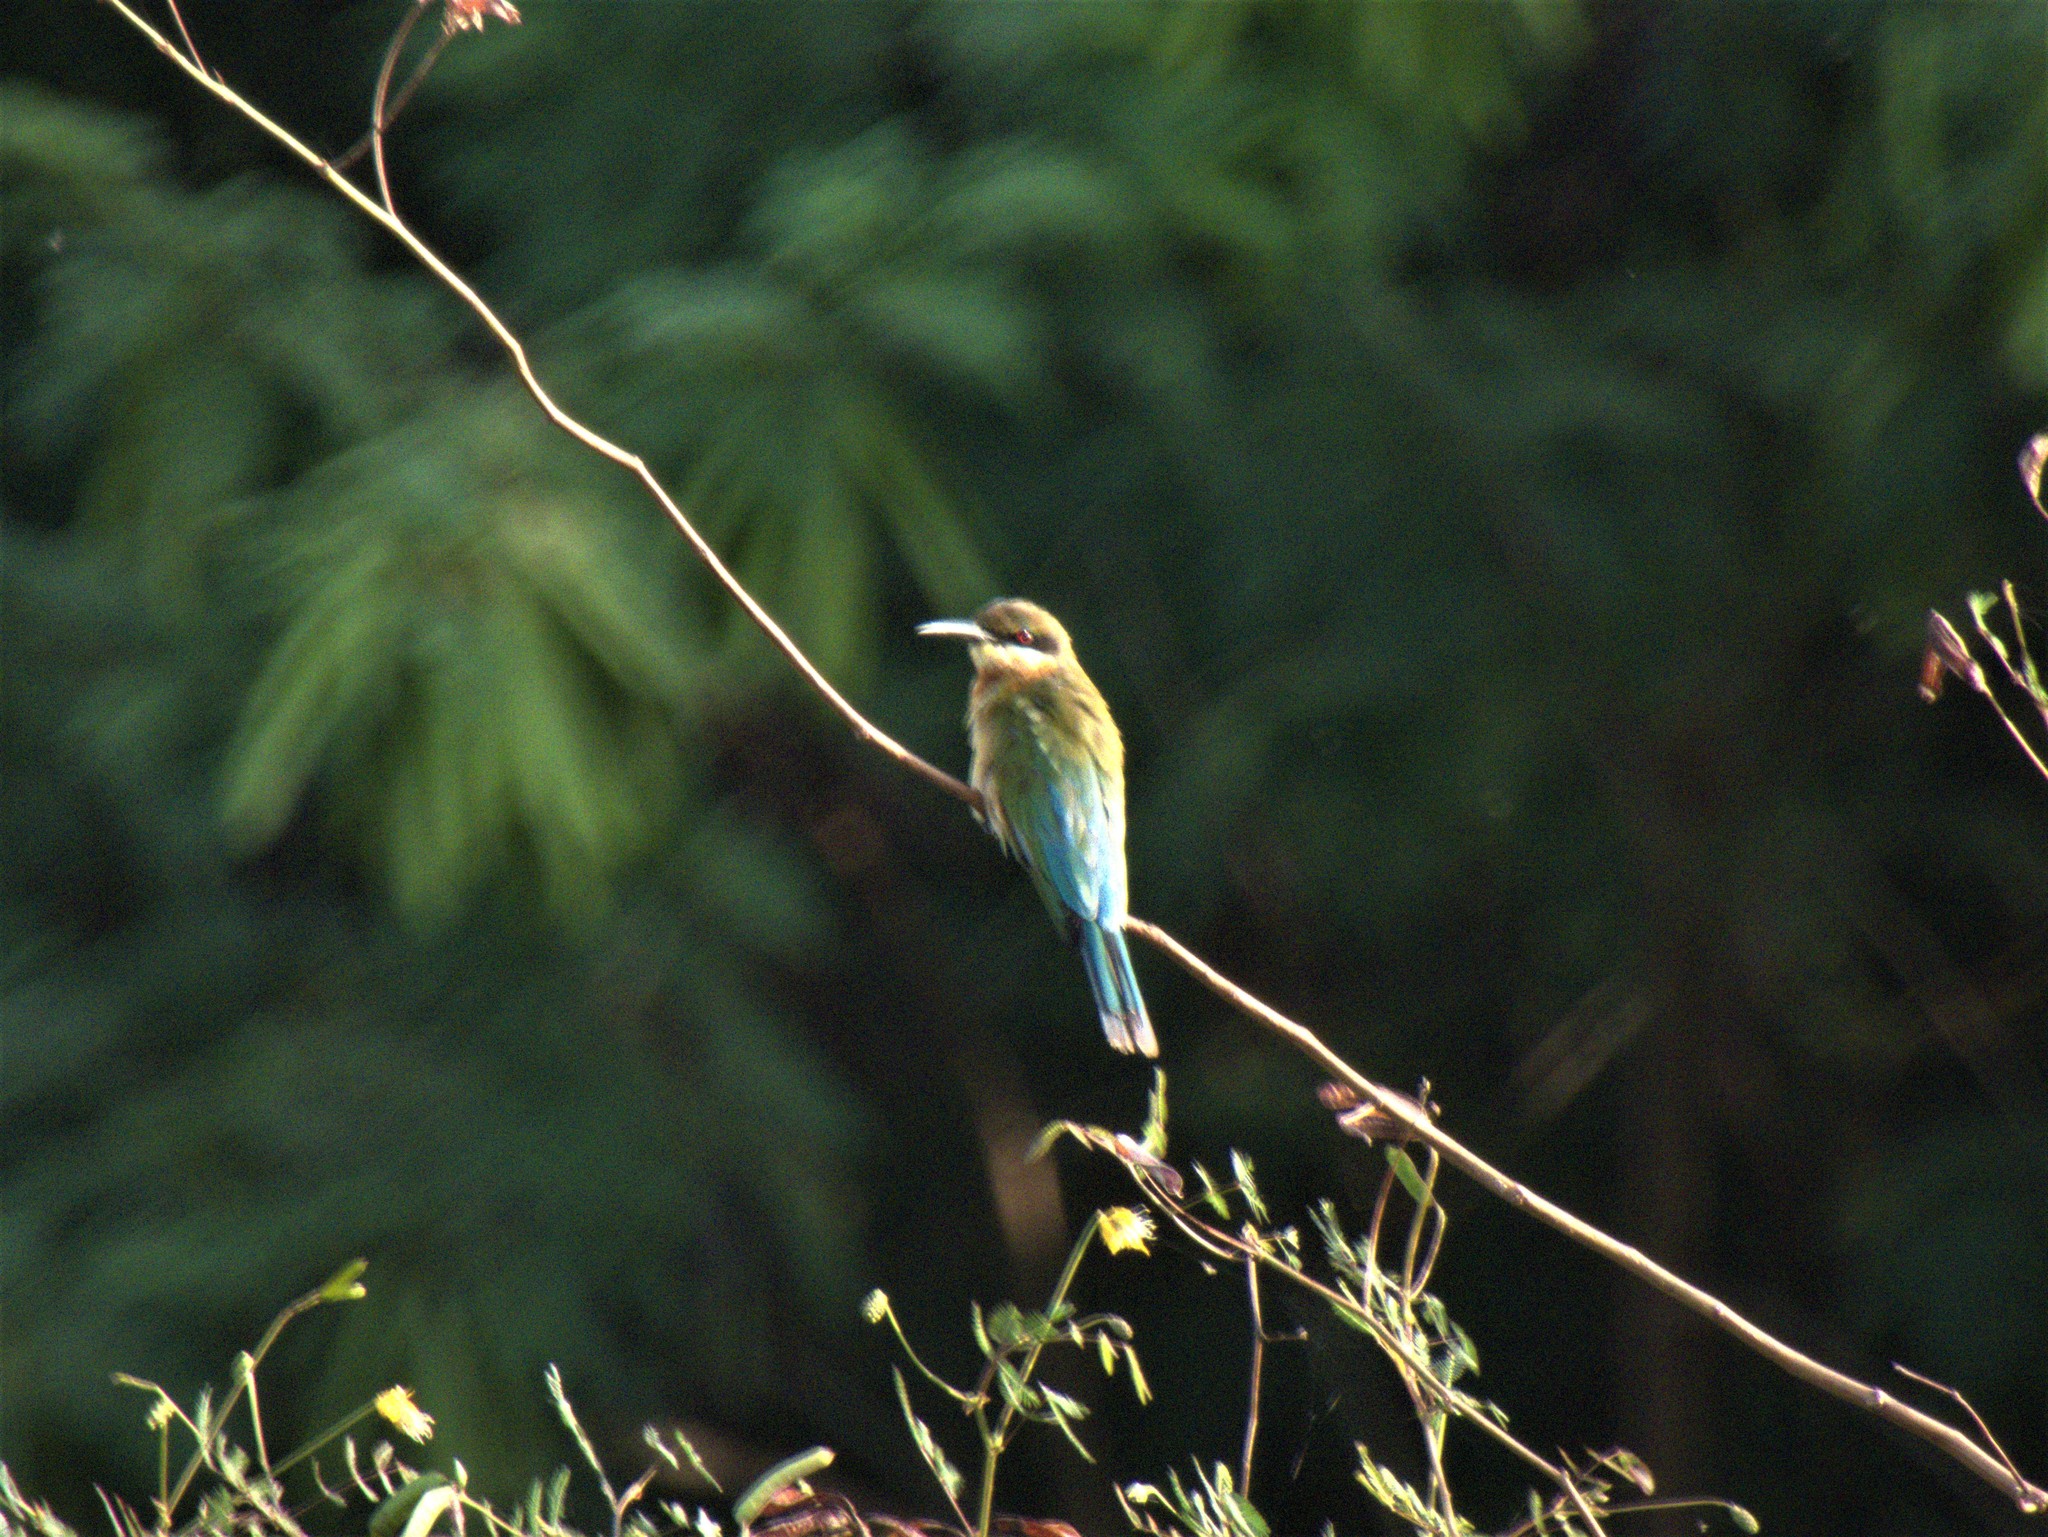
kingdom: Animalia
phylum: Chordata
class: Aves
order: Coraciiformes
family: Meropidae
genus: Merops
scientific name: Merops philippinus
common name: Blue-tailed bee-eater
